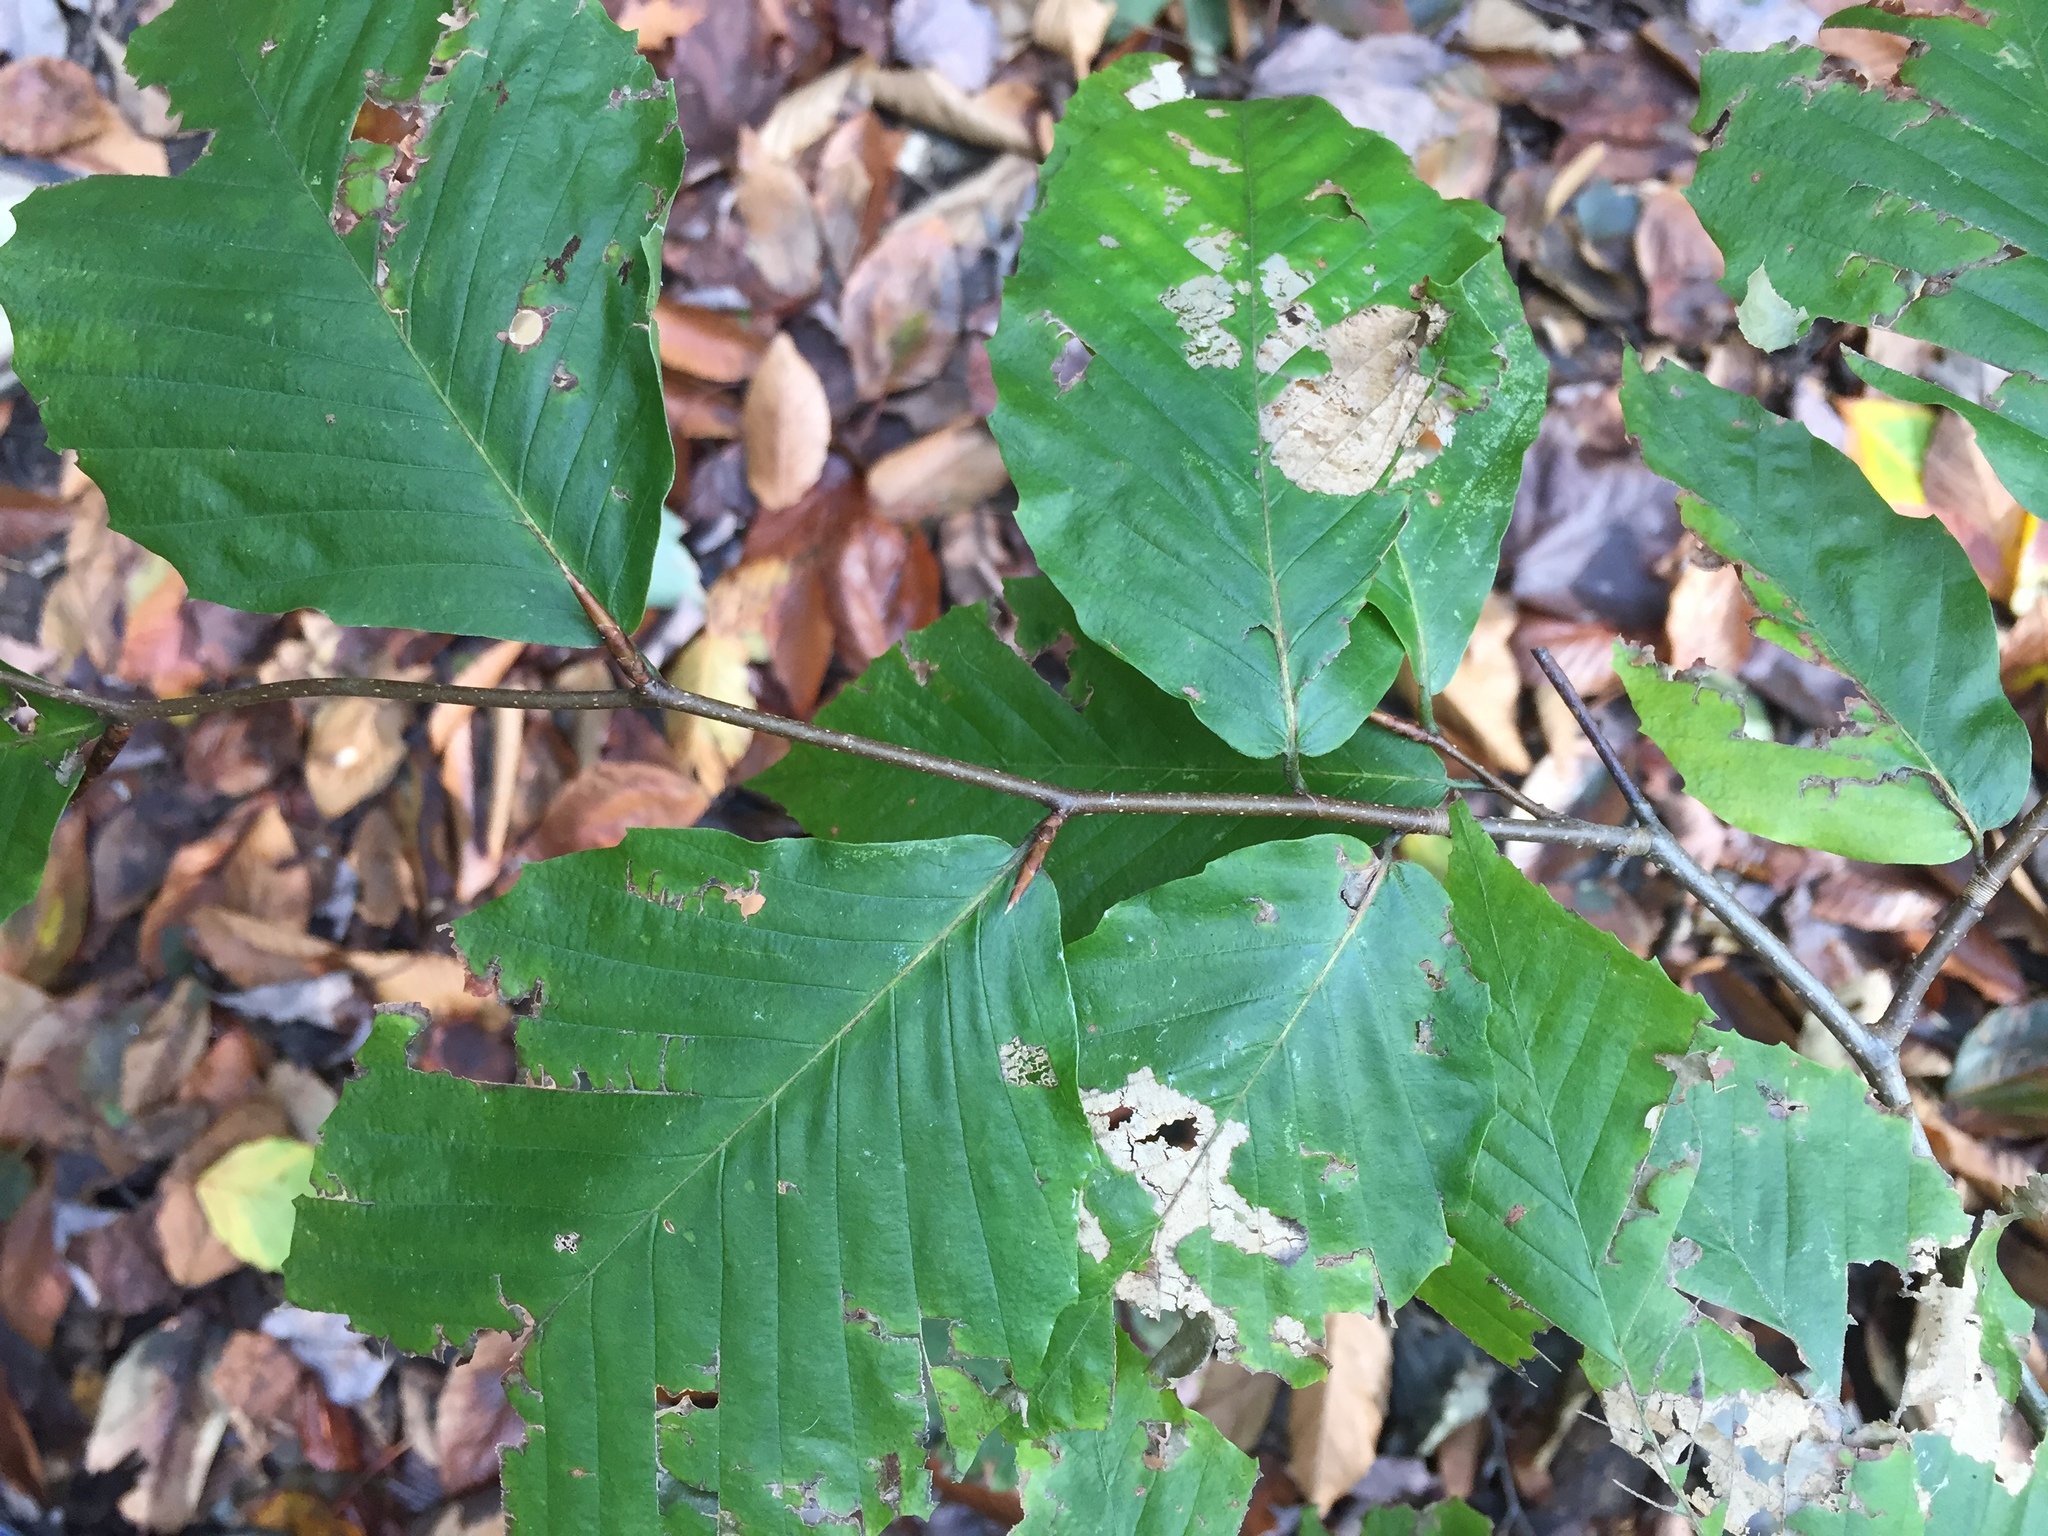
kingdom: Plantae
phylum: Tracheophyta
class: Magnoliopsida
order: Fagales
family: Fagaceae
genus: Fagus
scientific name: Fagus grandifolia
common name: American beech
